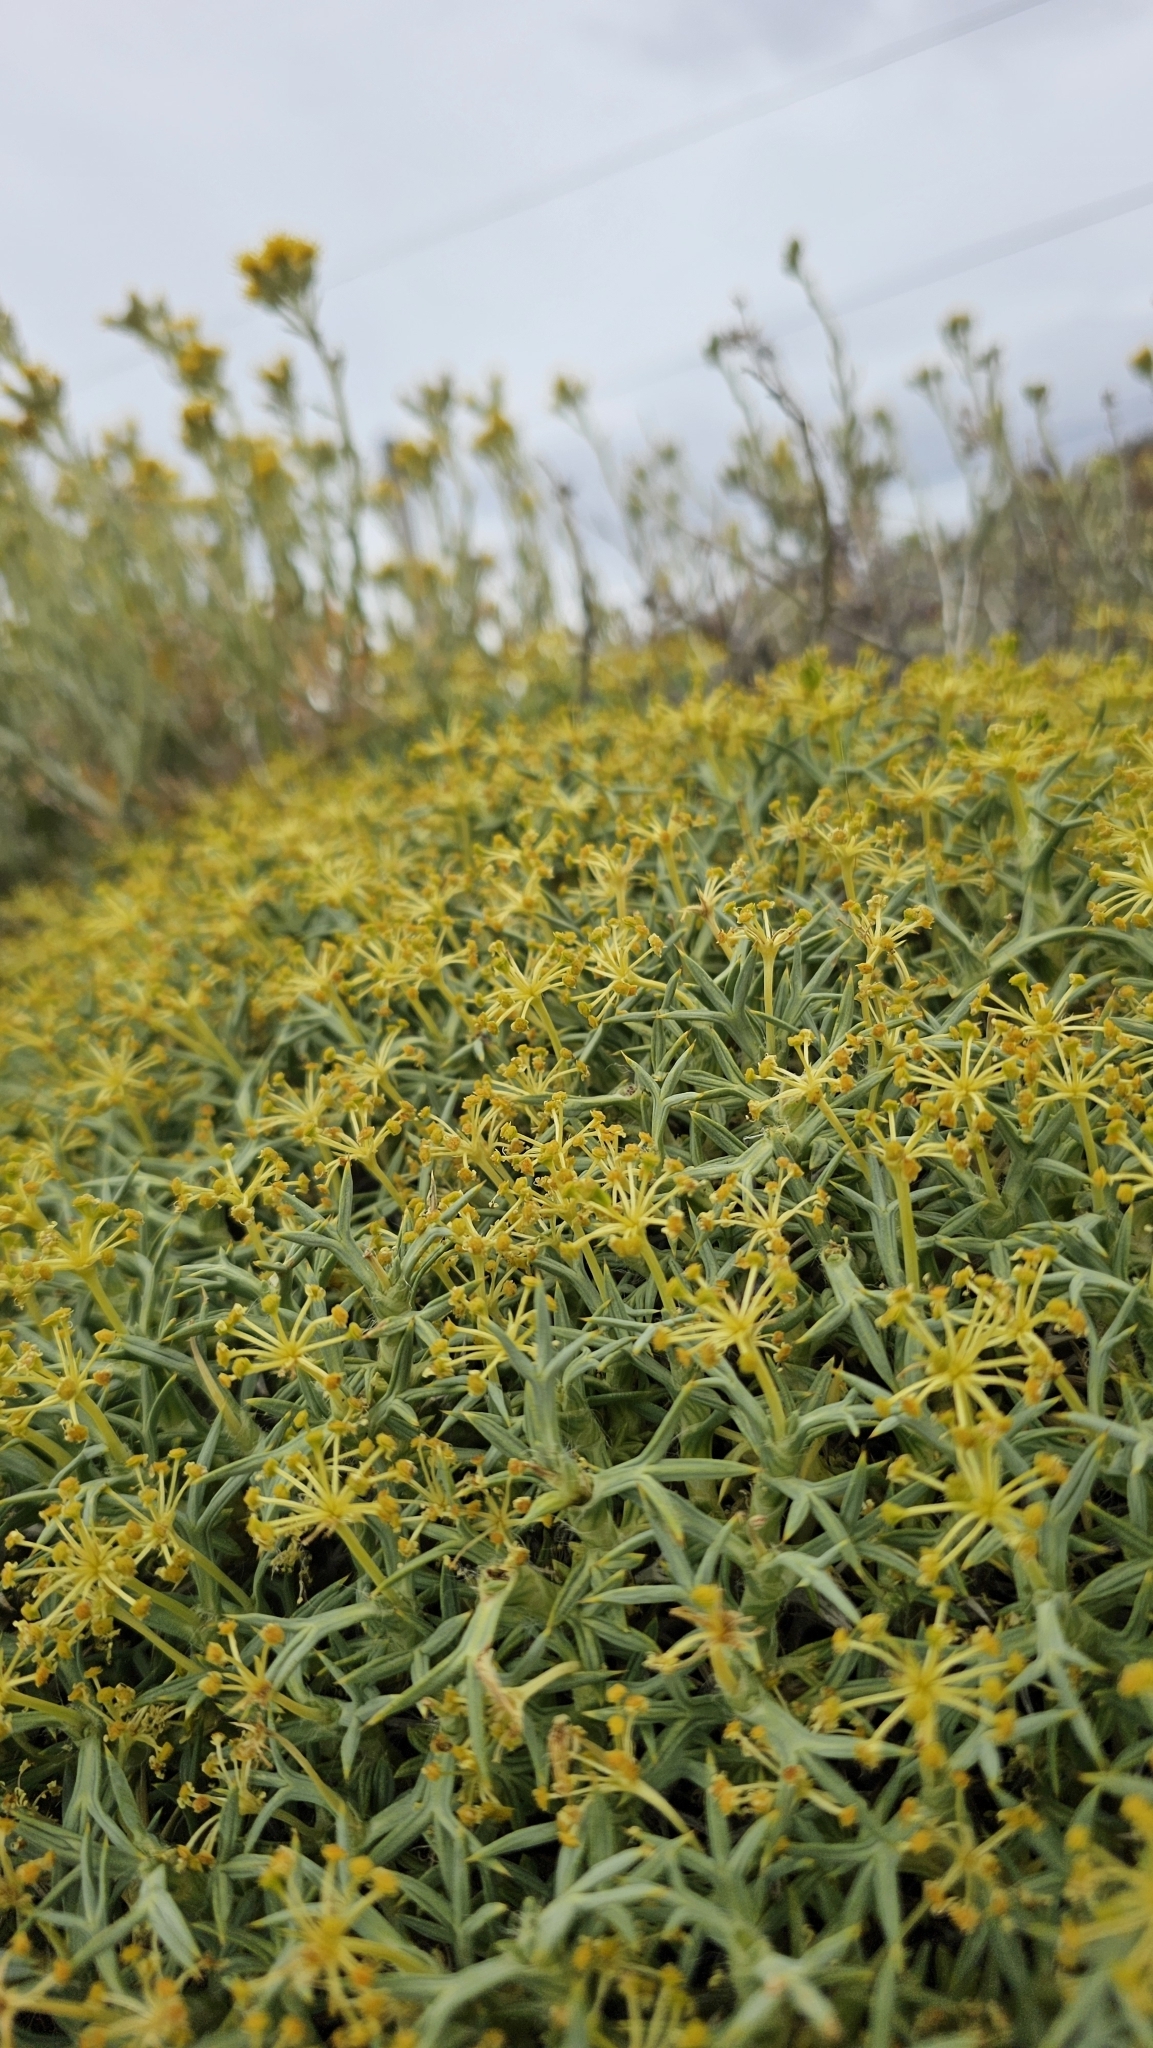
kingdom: Plantae
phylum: Tracheophyta
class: Magnoliopsida
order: Apiales
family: Apiaceae
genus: Azorella
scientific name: Azorella prolifera
